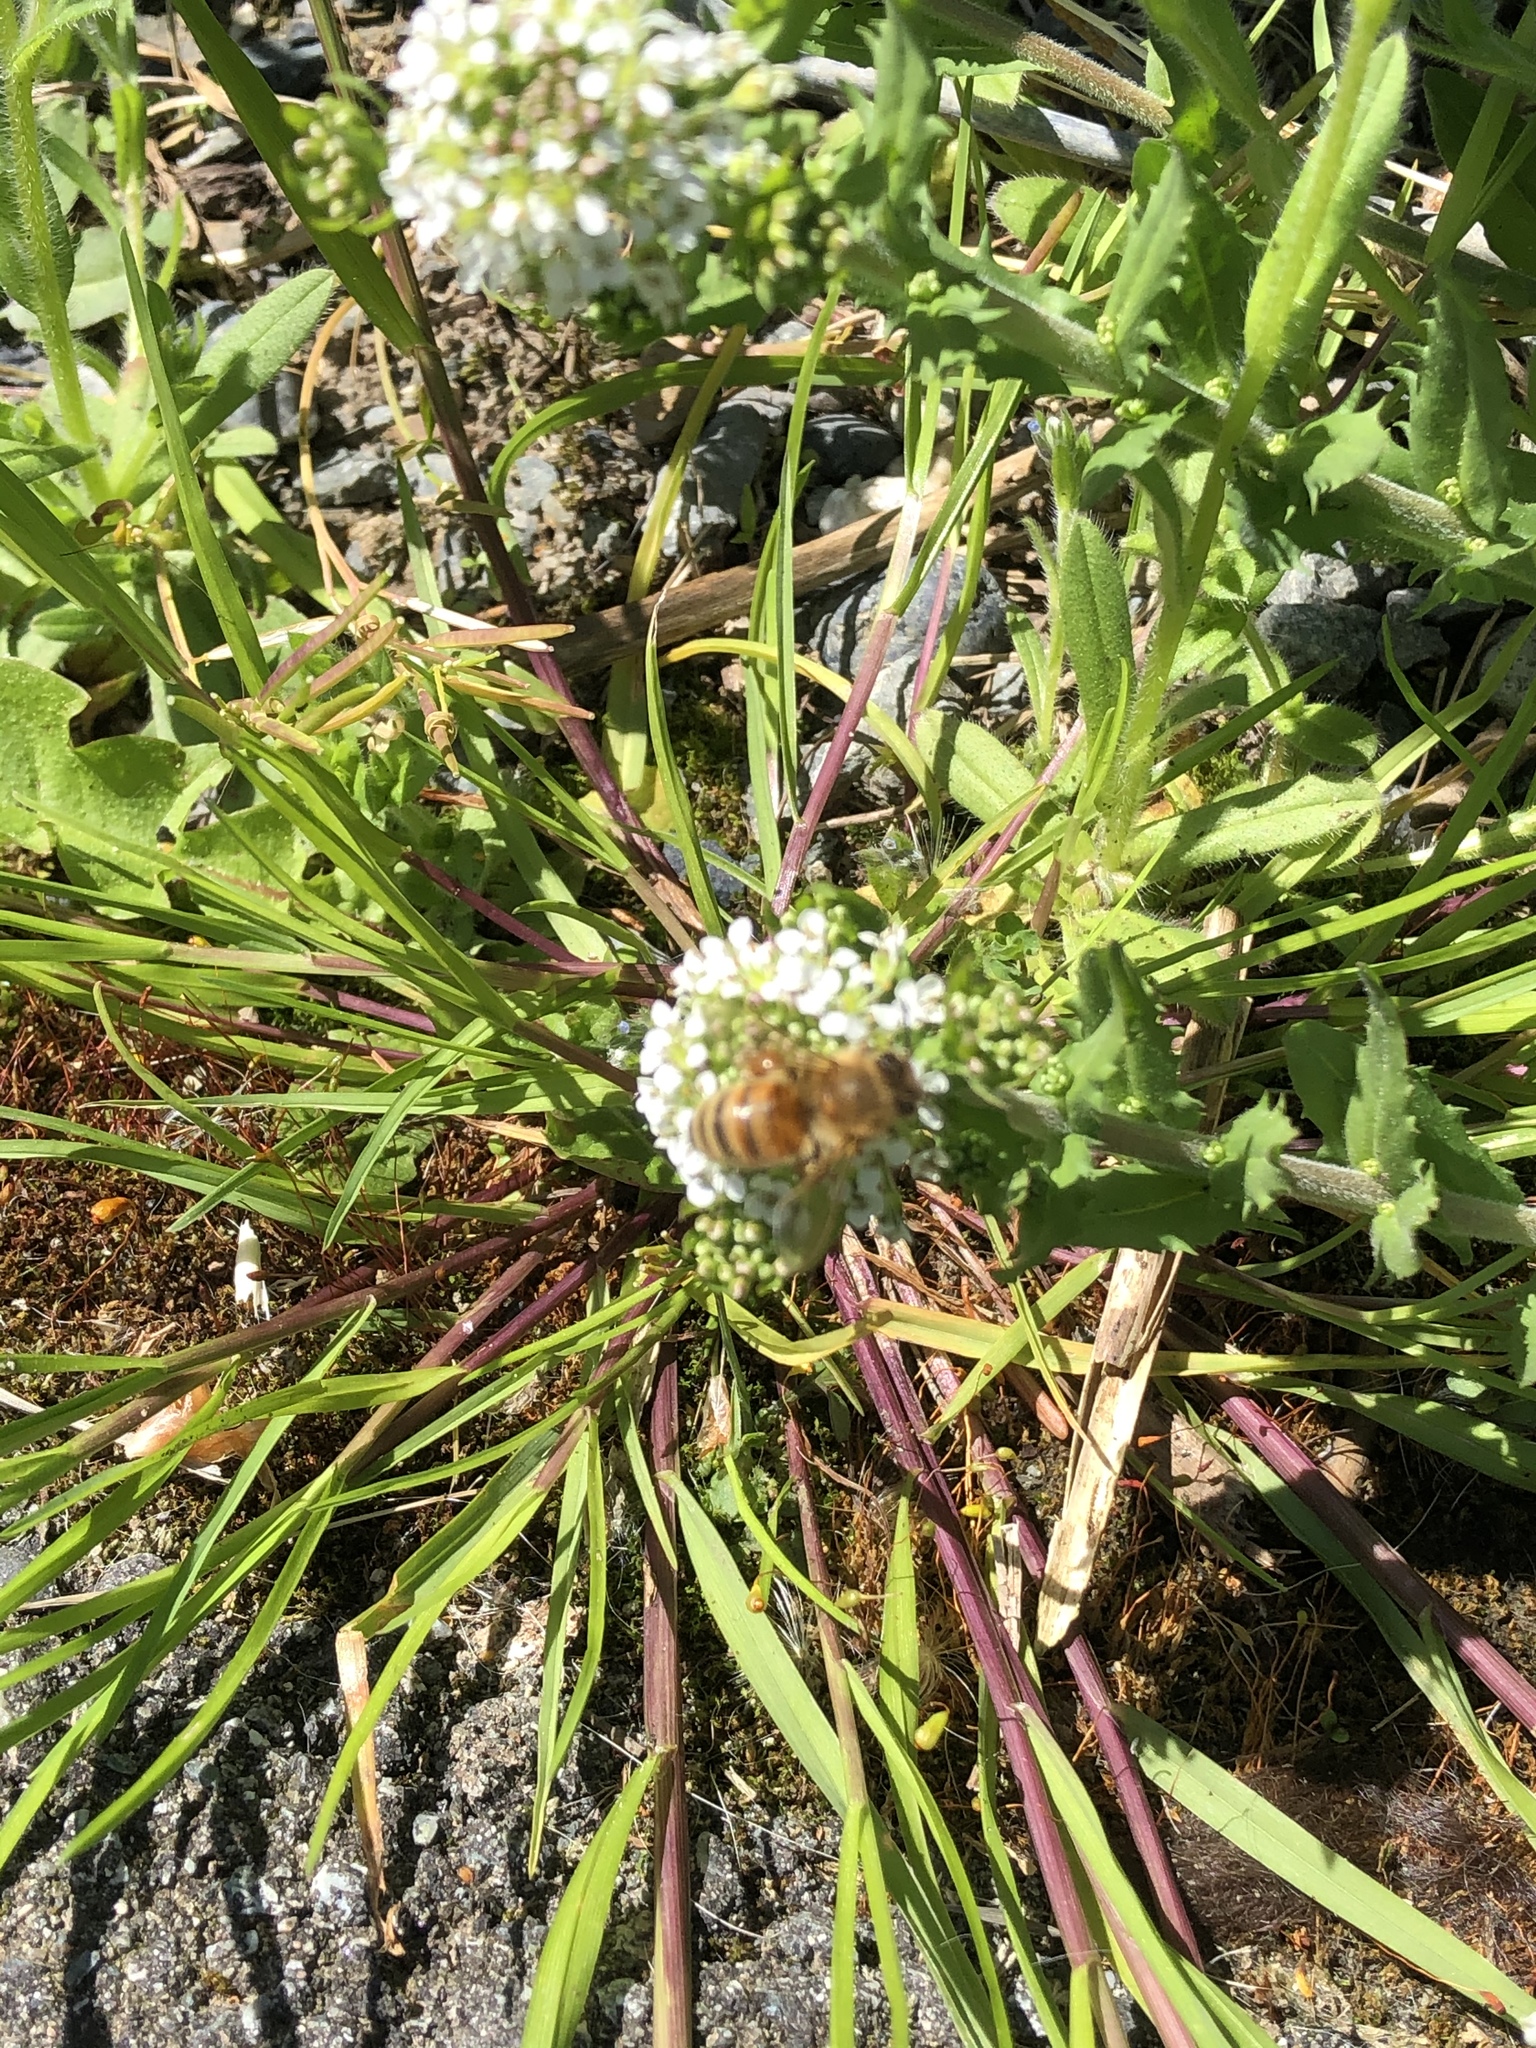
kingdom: Animalia
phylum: Arthropoda
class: Insecta
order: Hymenoptera
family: Apidae
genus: Apis
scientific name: Apis mellifera
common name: Honey bee
